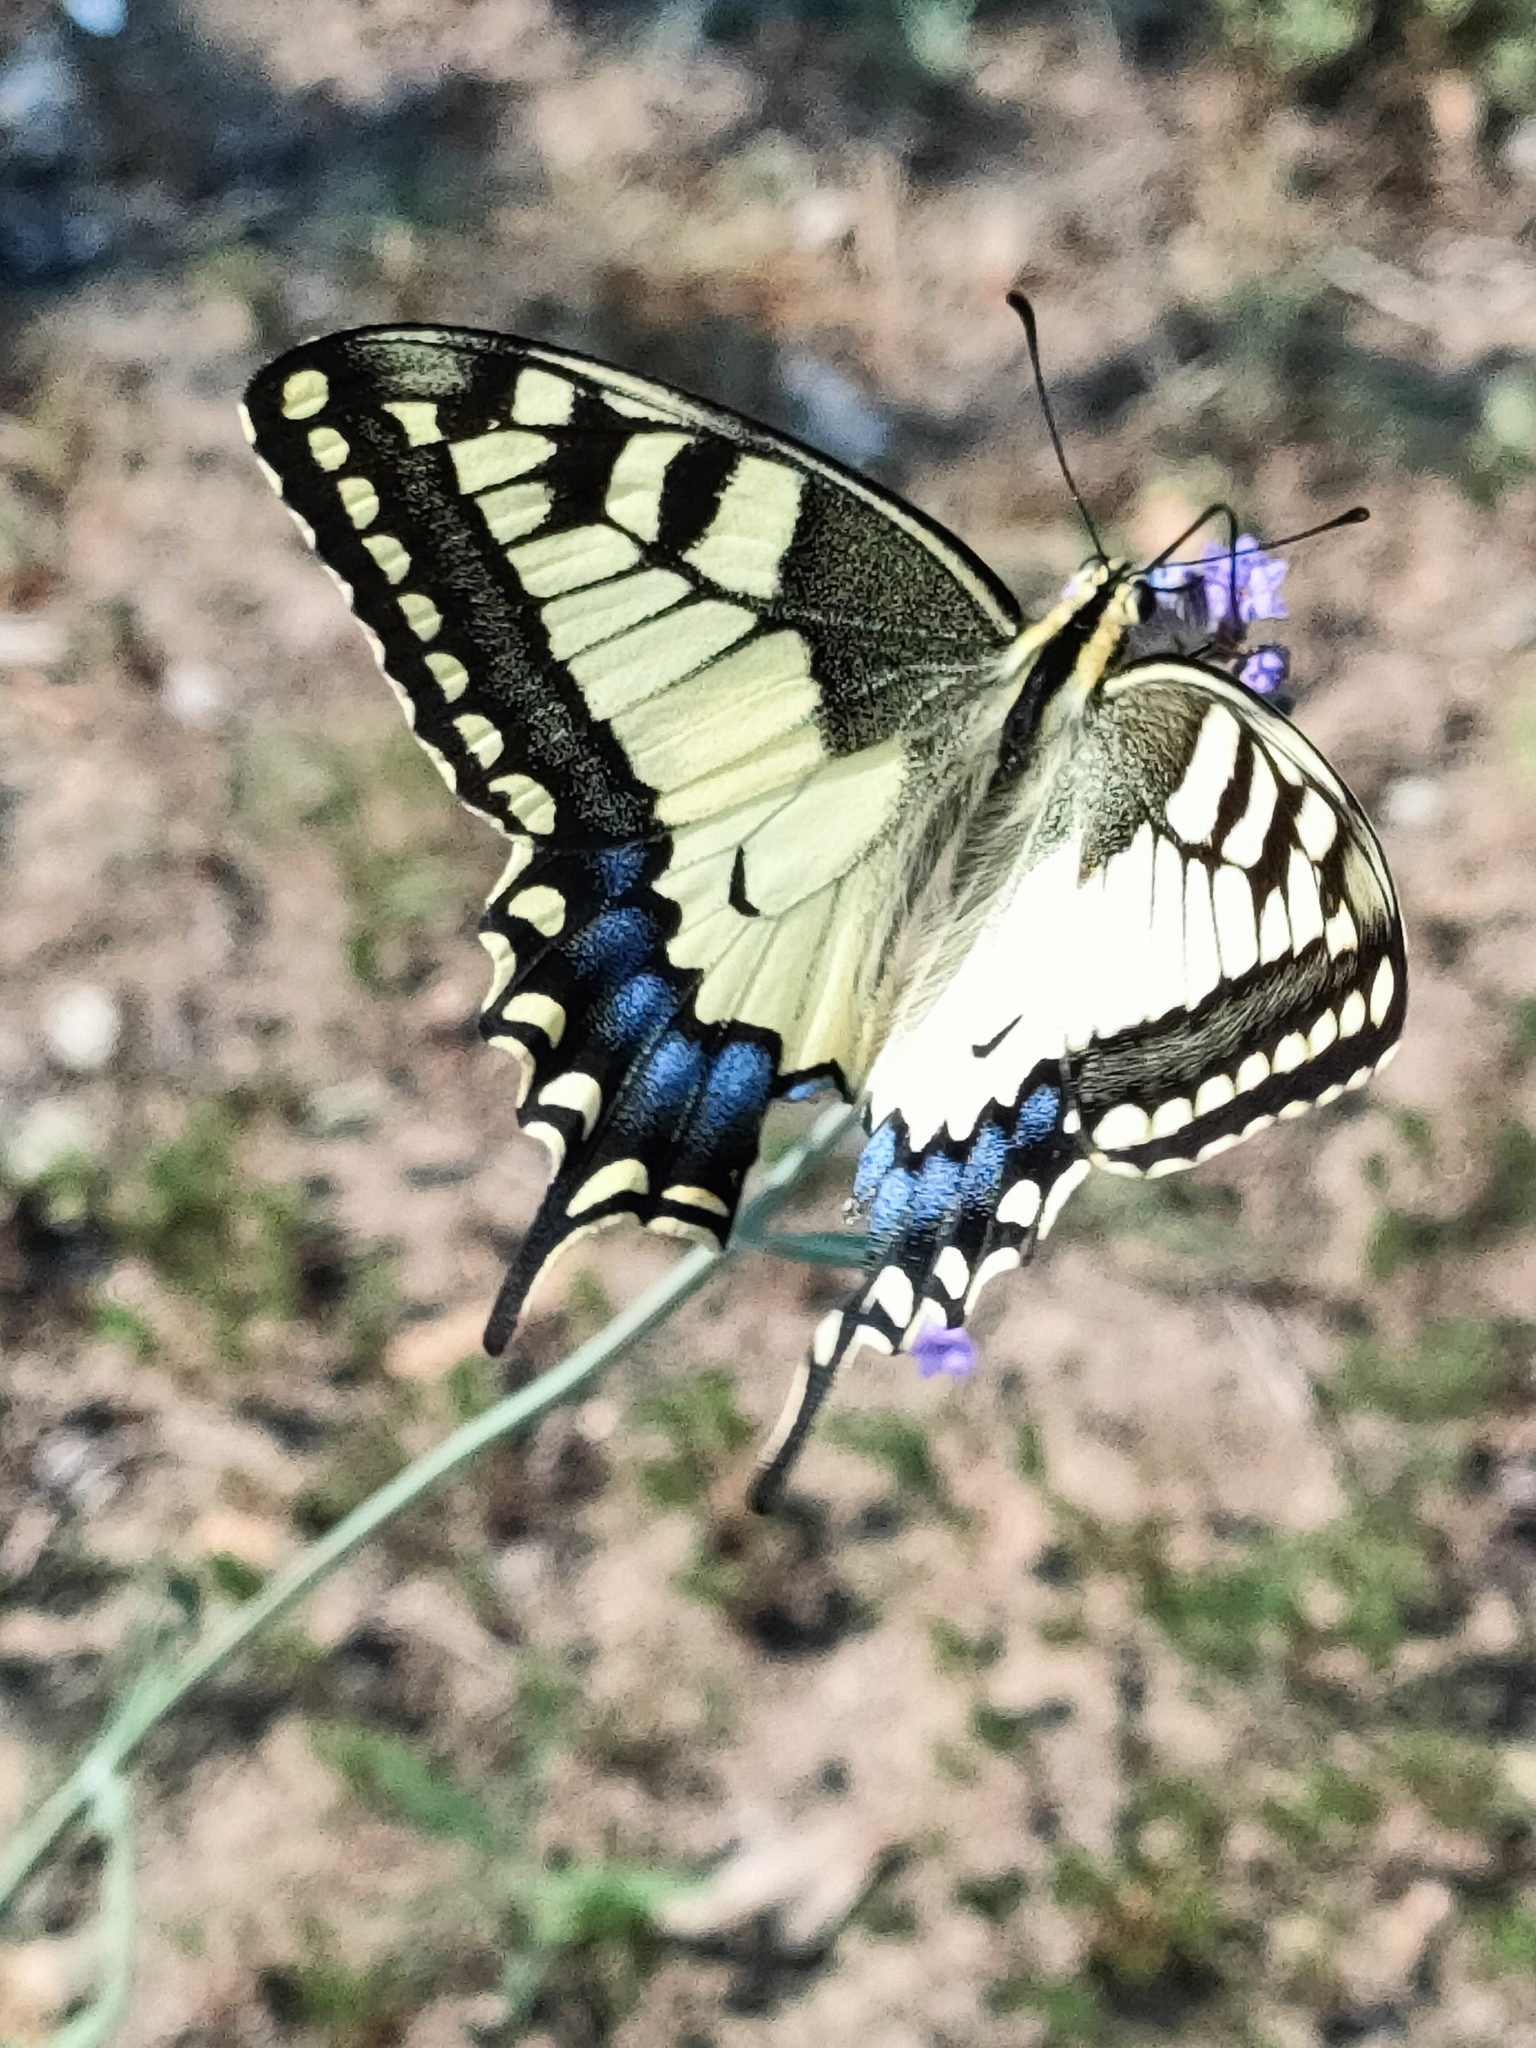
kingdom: Animalia
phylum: Arthropoda
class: Insecta
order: Lepidoptera
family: Papilionidae
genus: Papilio
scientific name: Papilio machaon
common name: Swallowtail
